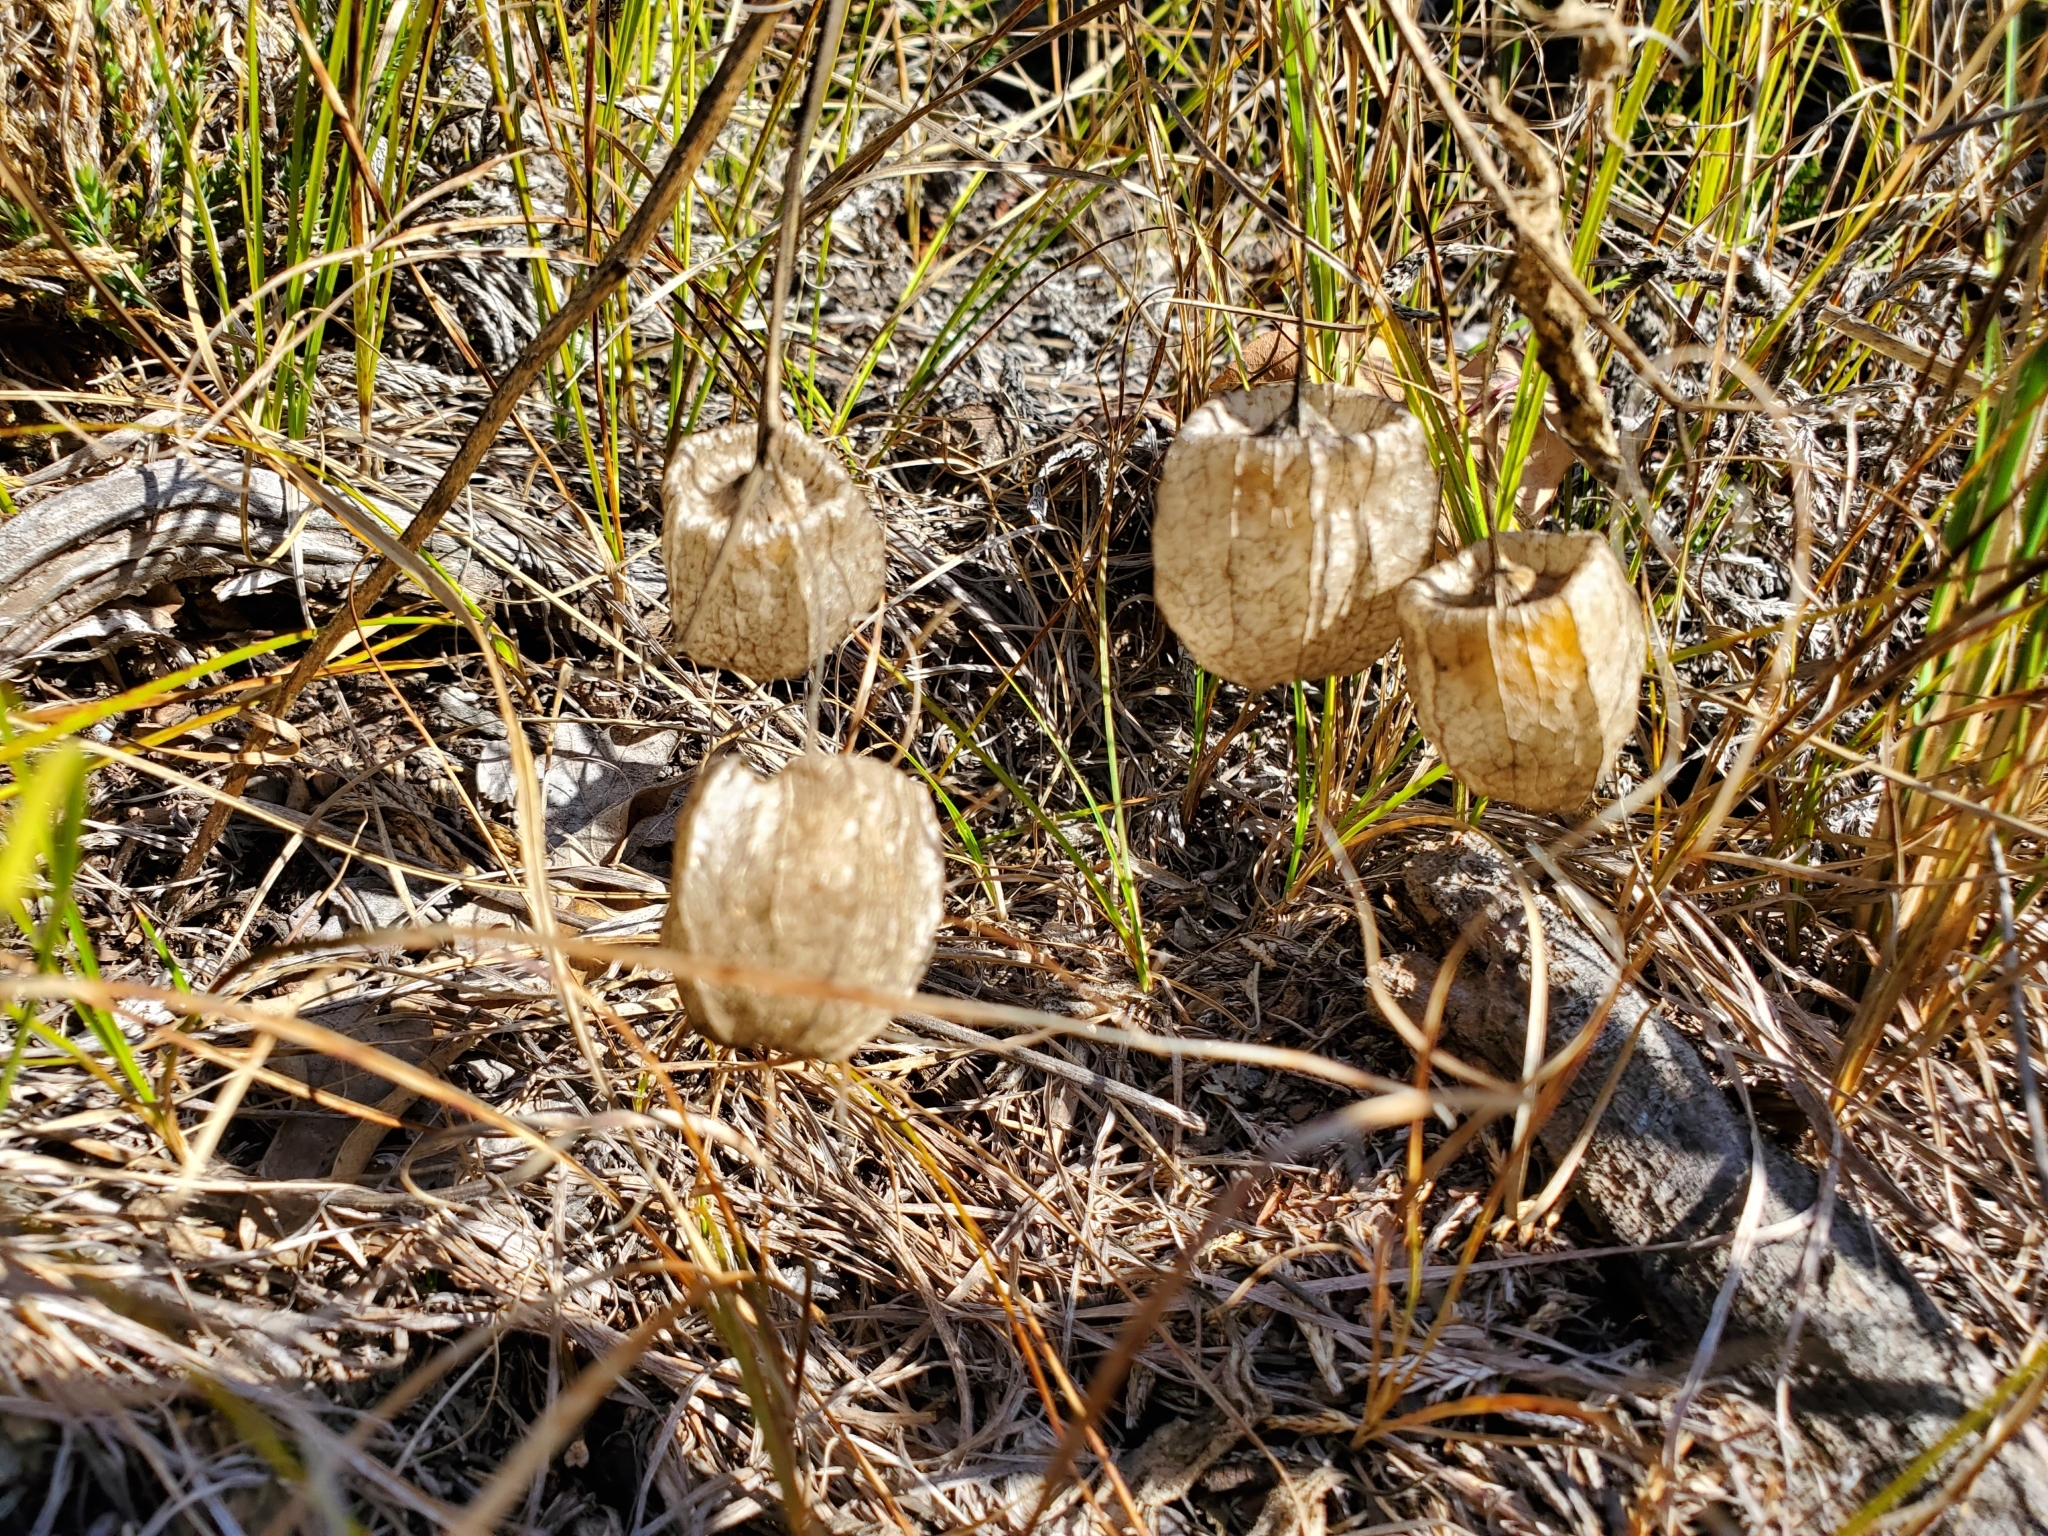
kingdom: Plantae
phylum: Tracheophyta
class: Magnoliopsida
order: Solanales
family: Solanaceae
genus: Physalis
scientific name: Physalis virginiana
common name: Virginia ground-cherry
